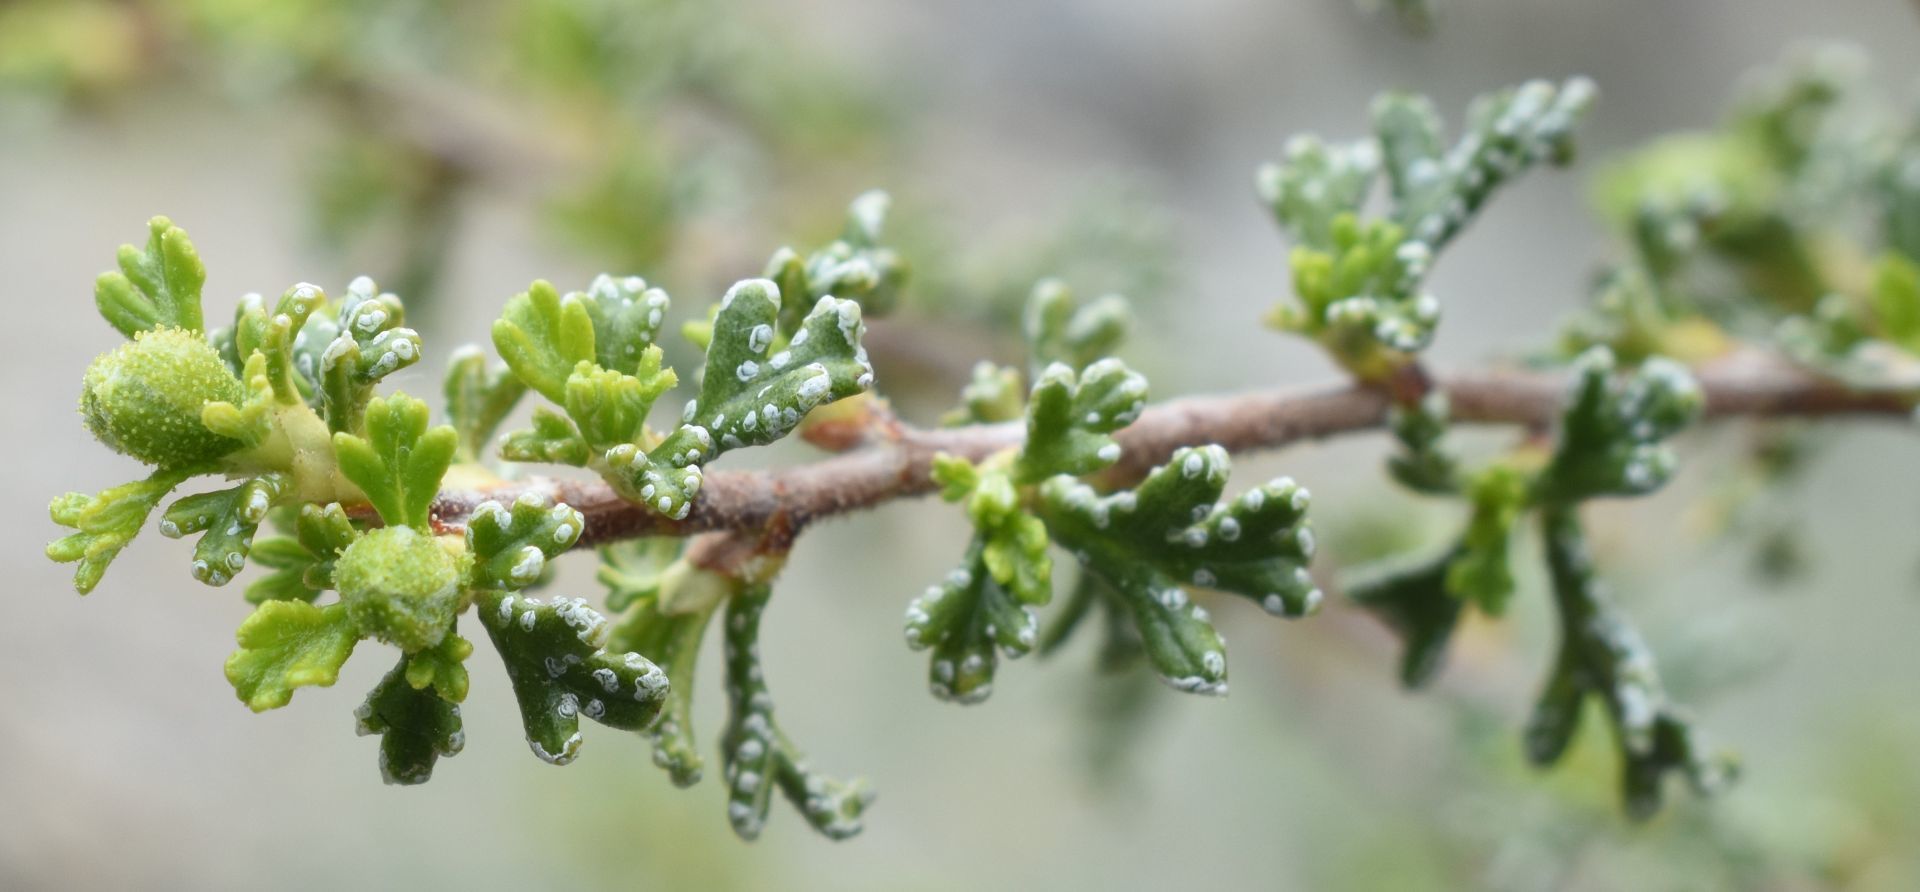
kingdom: Plantae
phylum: Tracheophyta
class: Magnoliopsida
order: Rosales
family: Rosaceae
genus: Purshia
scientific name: Purshia stansburiana
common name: Stansbury's cliffrose
